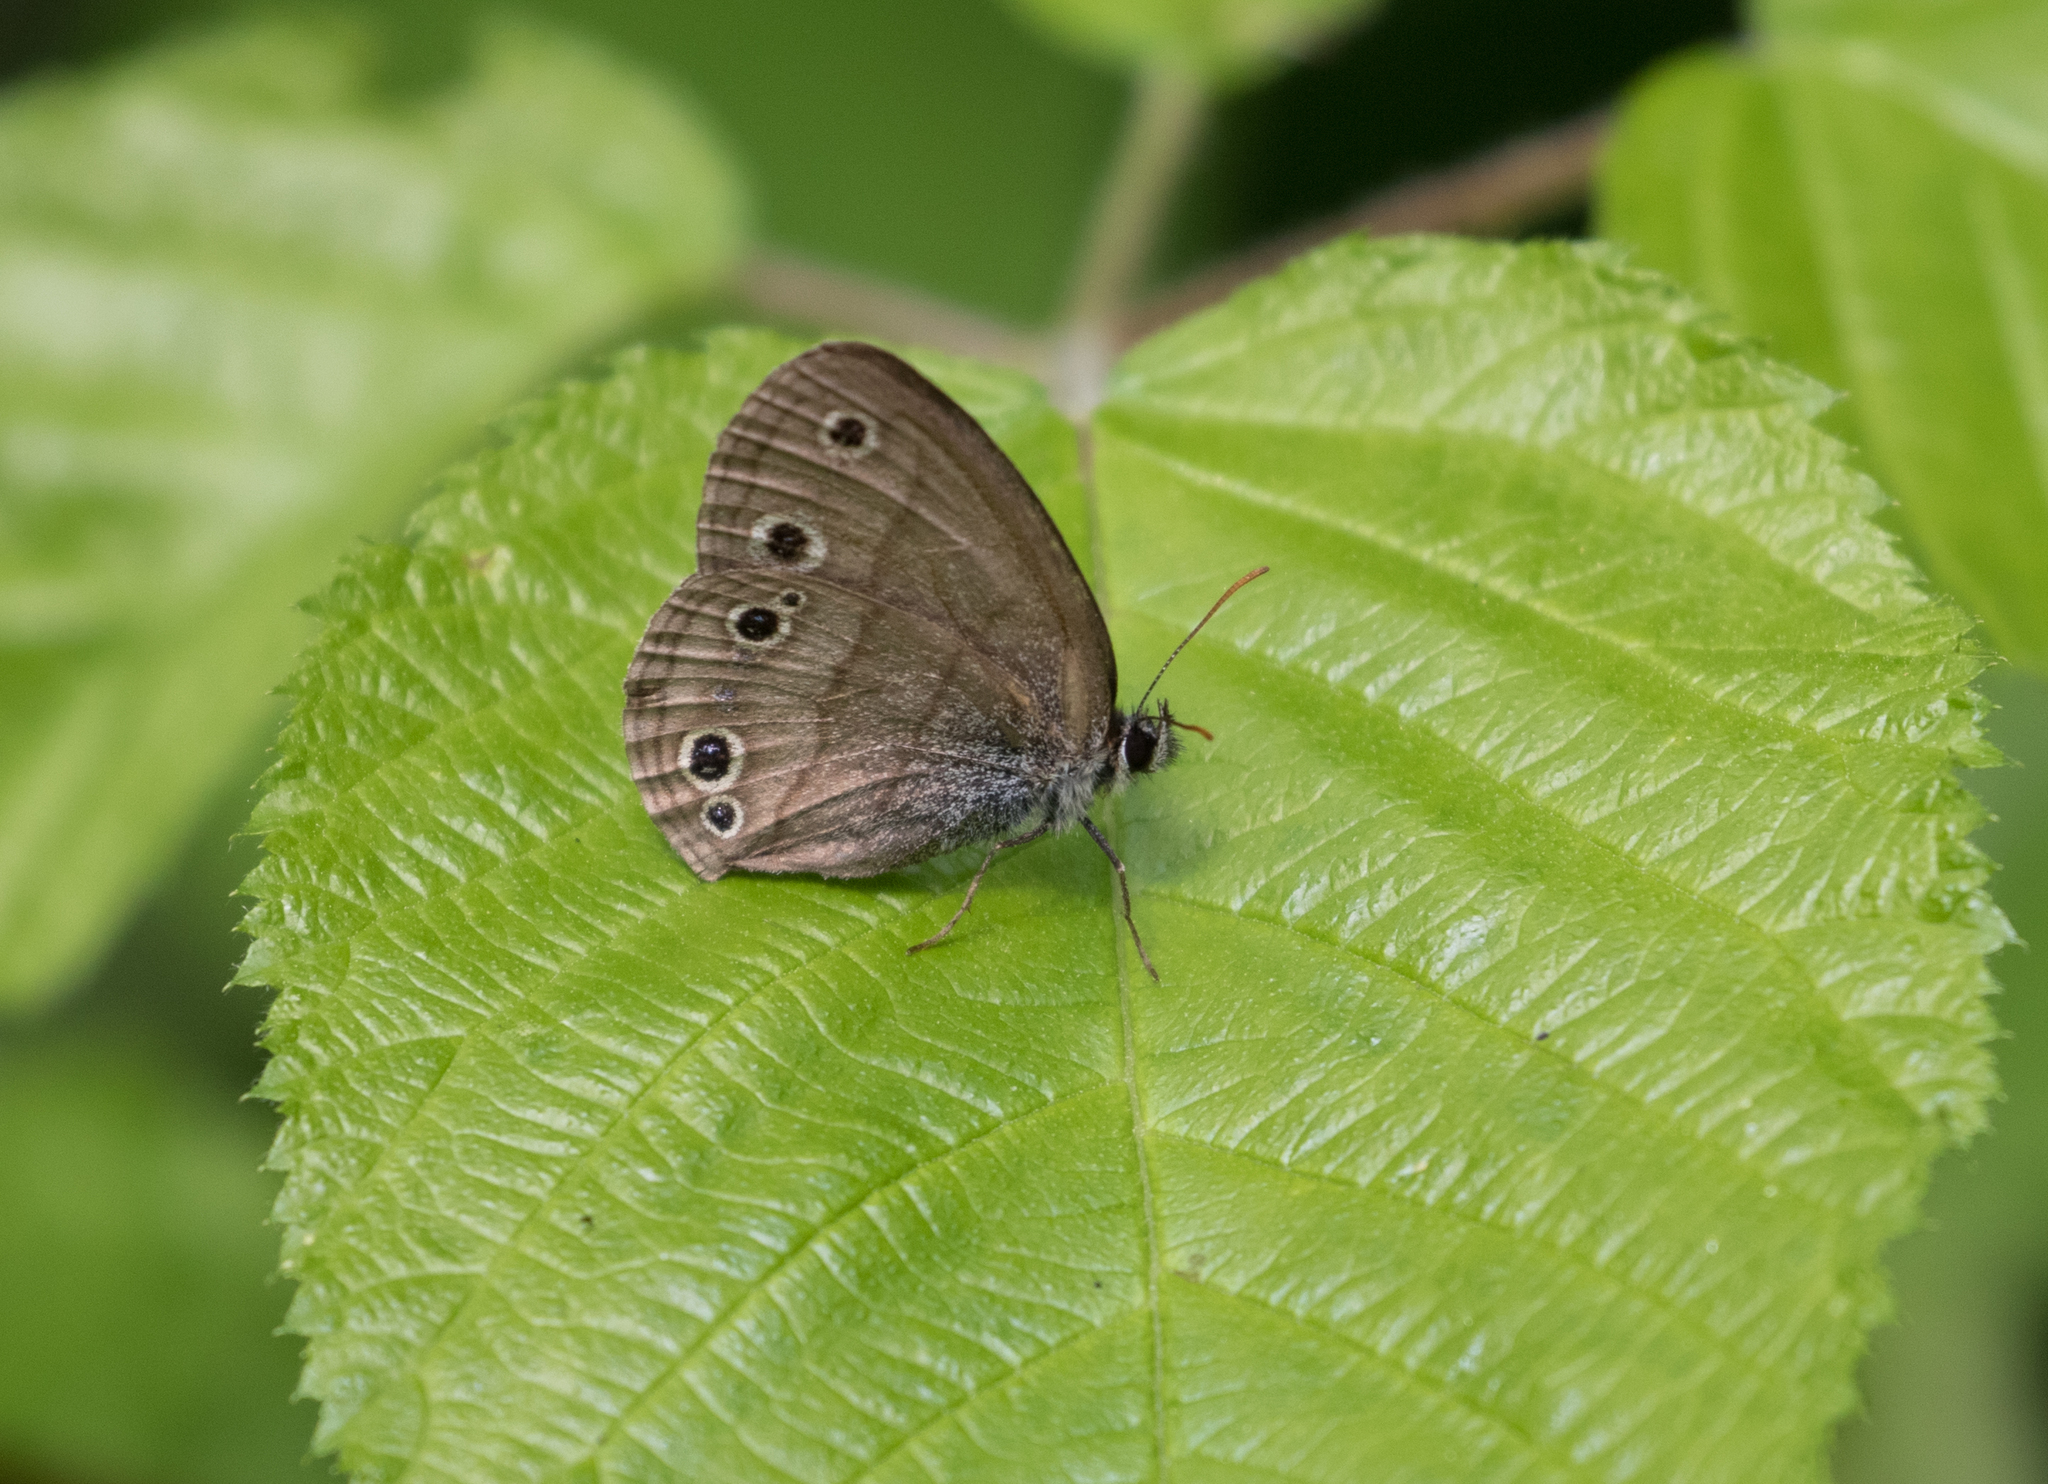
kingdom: Animalia
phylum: Arthropoda
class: Insecta
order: Lepidoptera
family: Nymphalidae
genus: Euptychia
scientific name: Euptychia cymela
